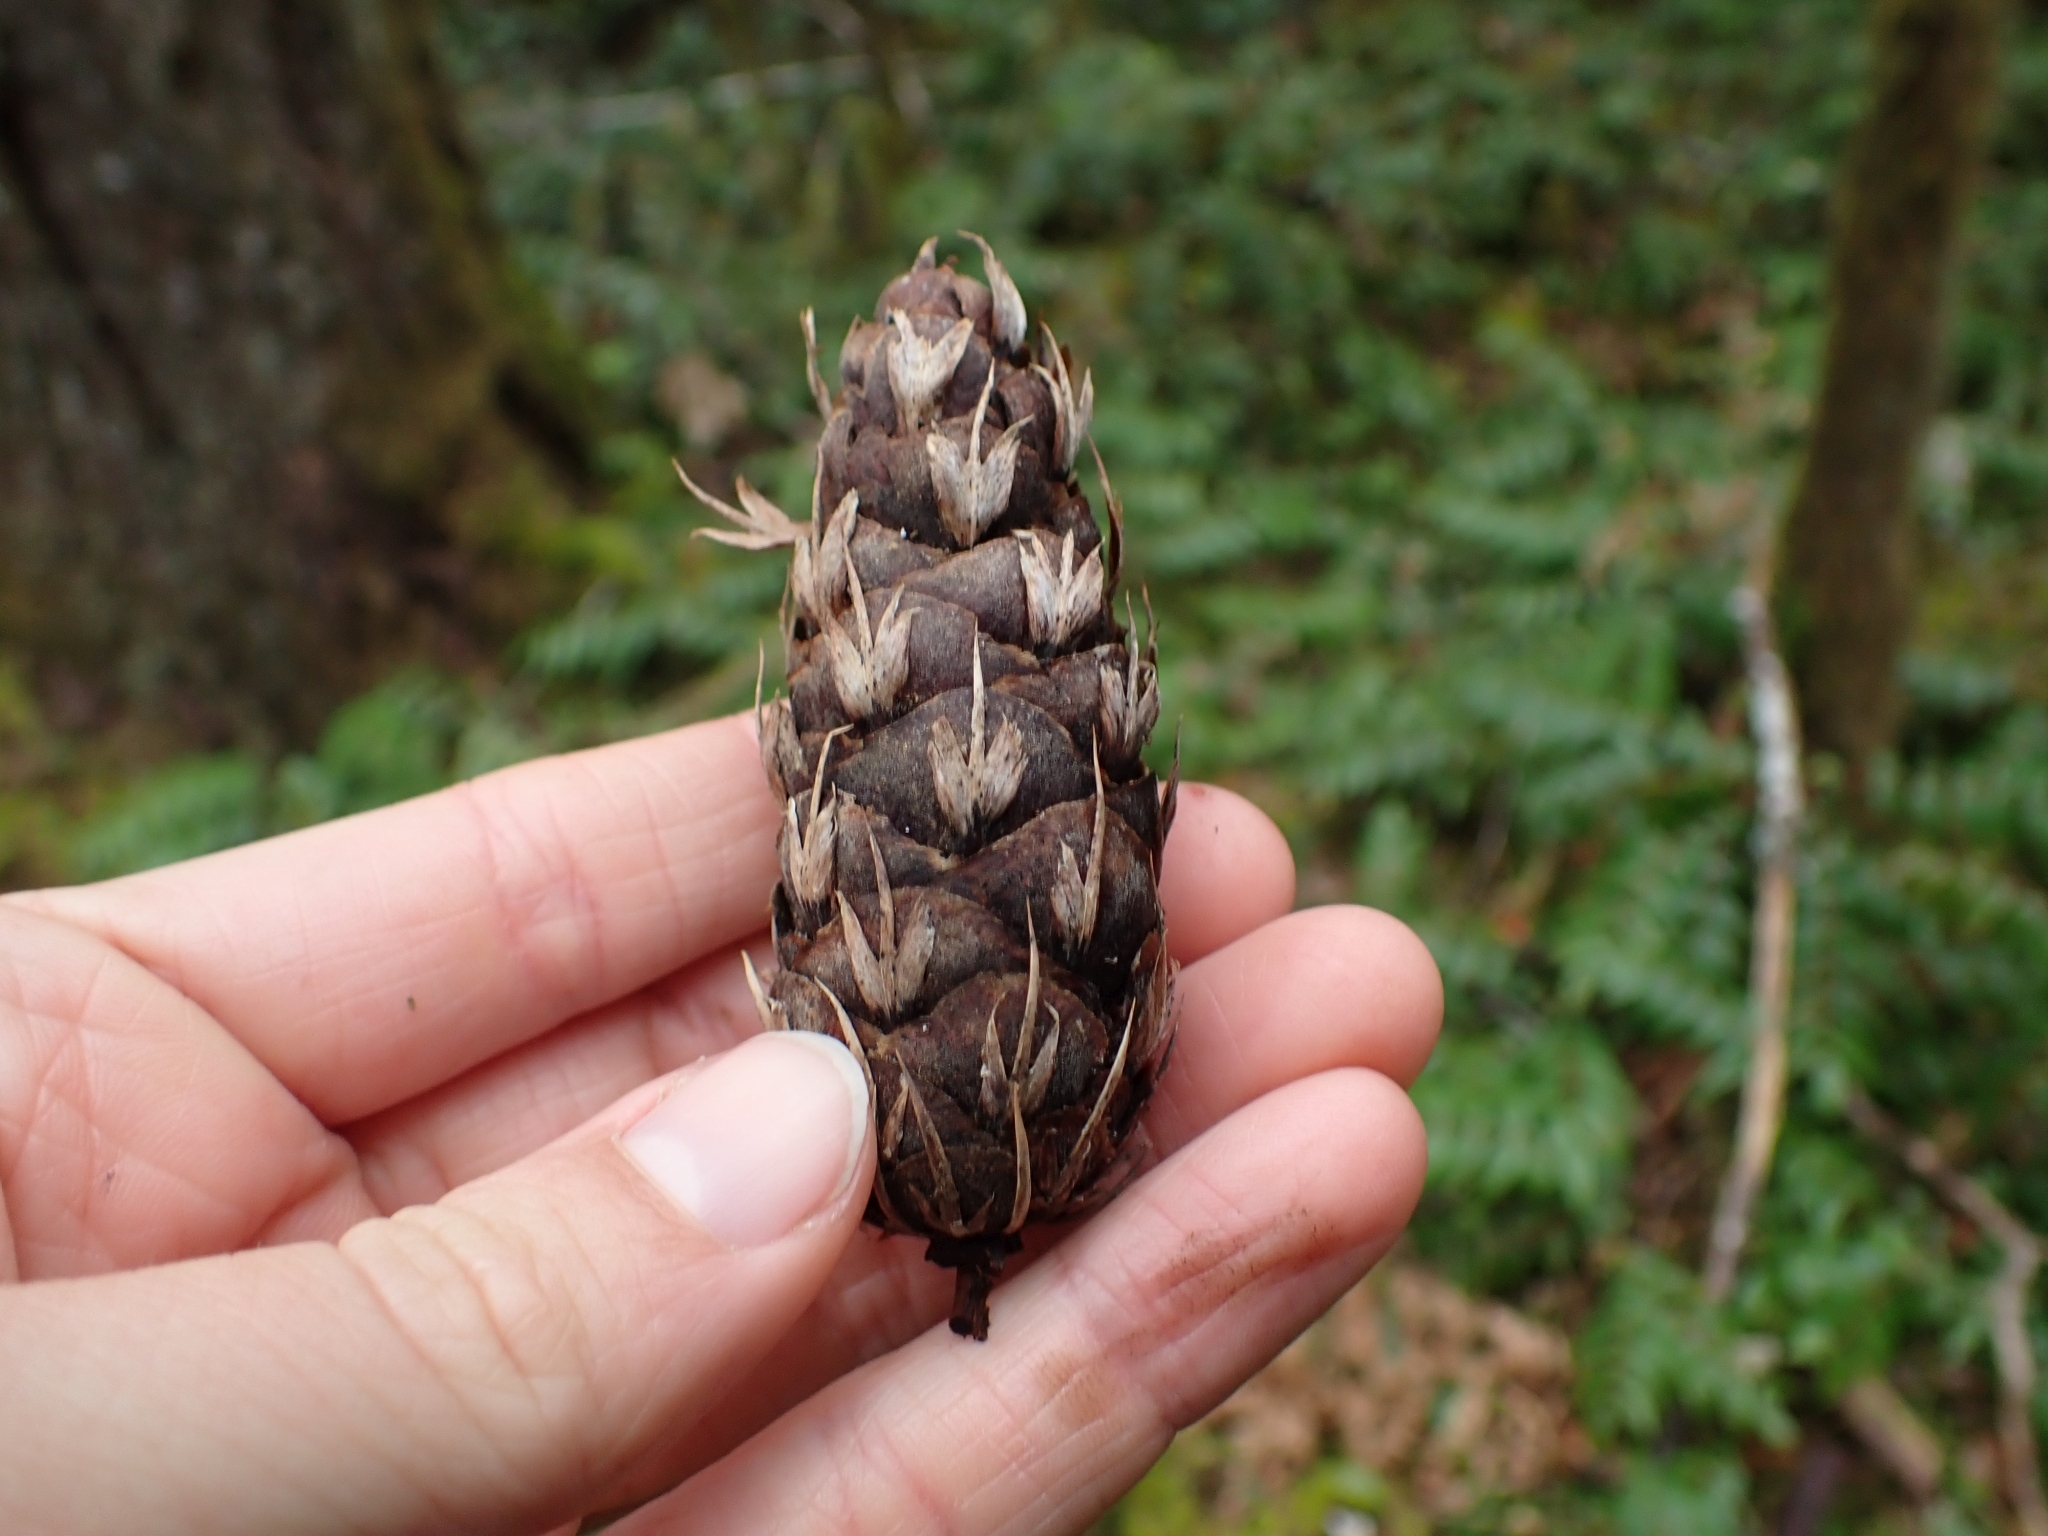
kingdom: Plantae
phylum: Tracheophyta
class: Pinopsida
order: Pinales
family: Pinaceae
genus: Pseudotsuga
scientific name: Pseudotsuga menziesii
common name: Douglas fir
